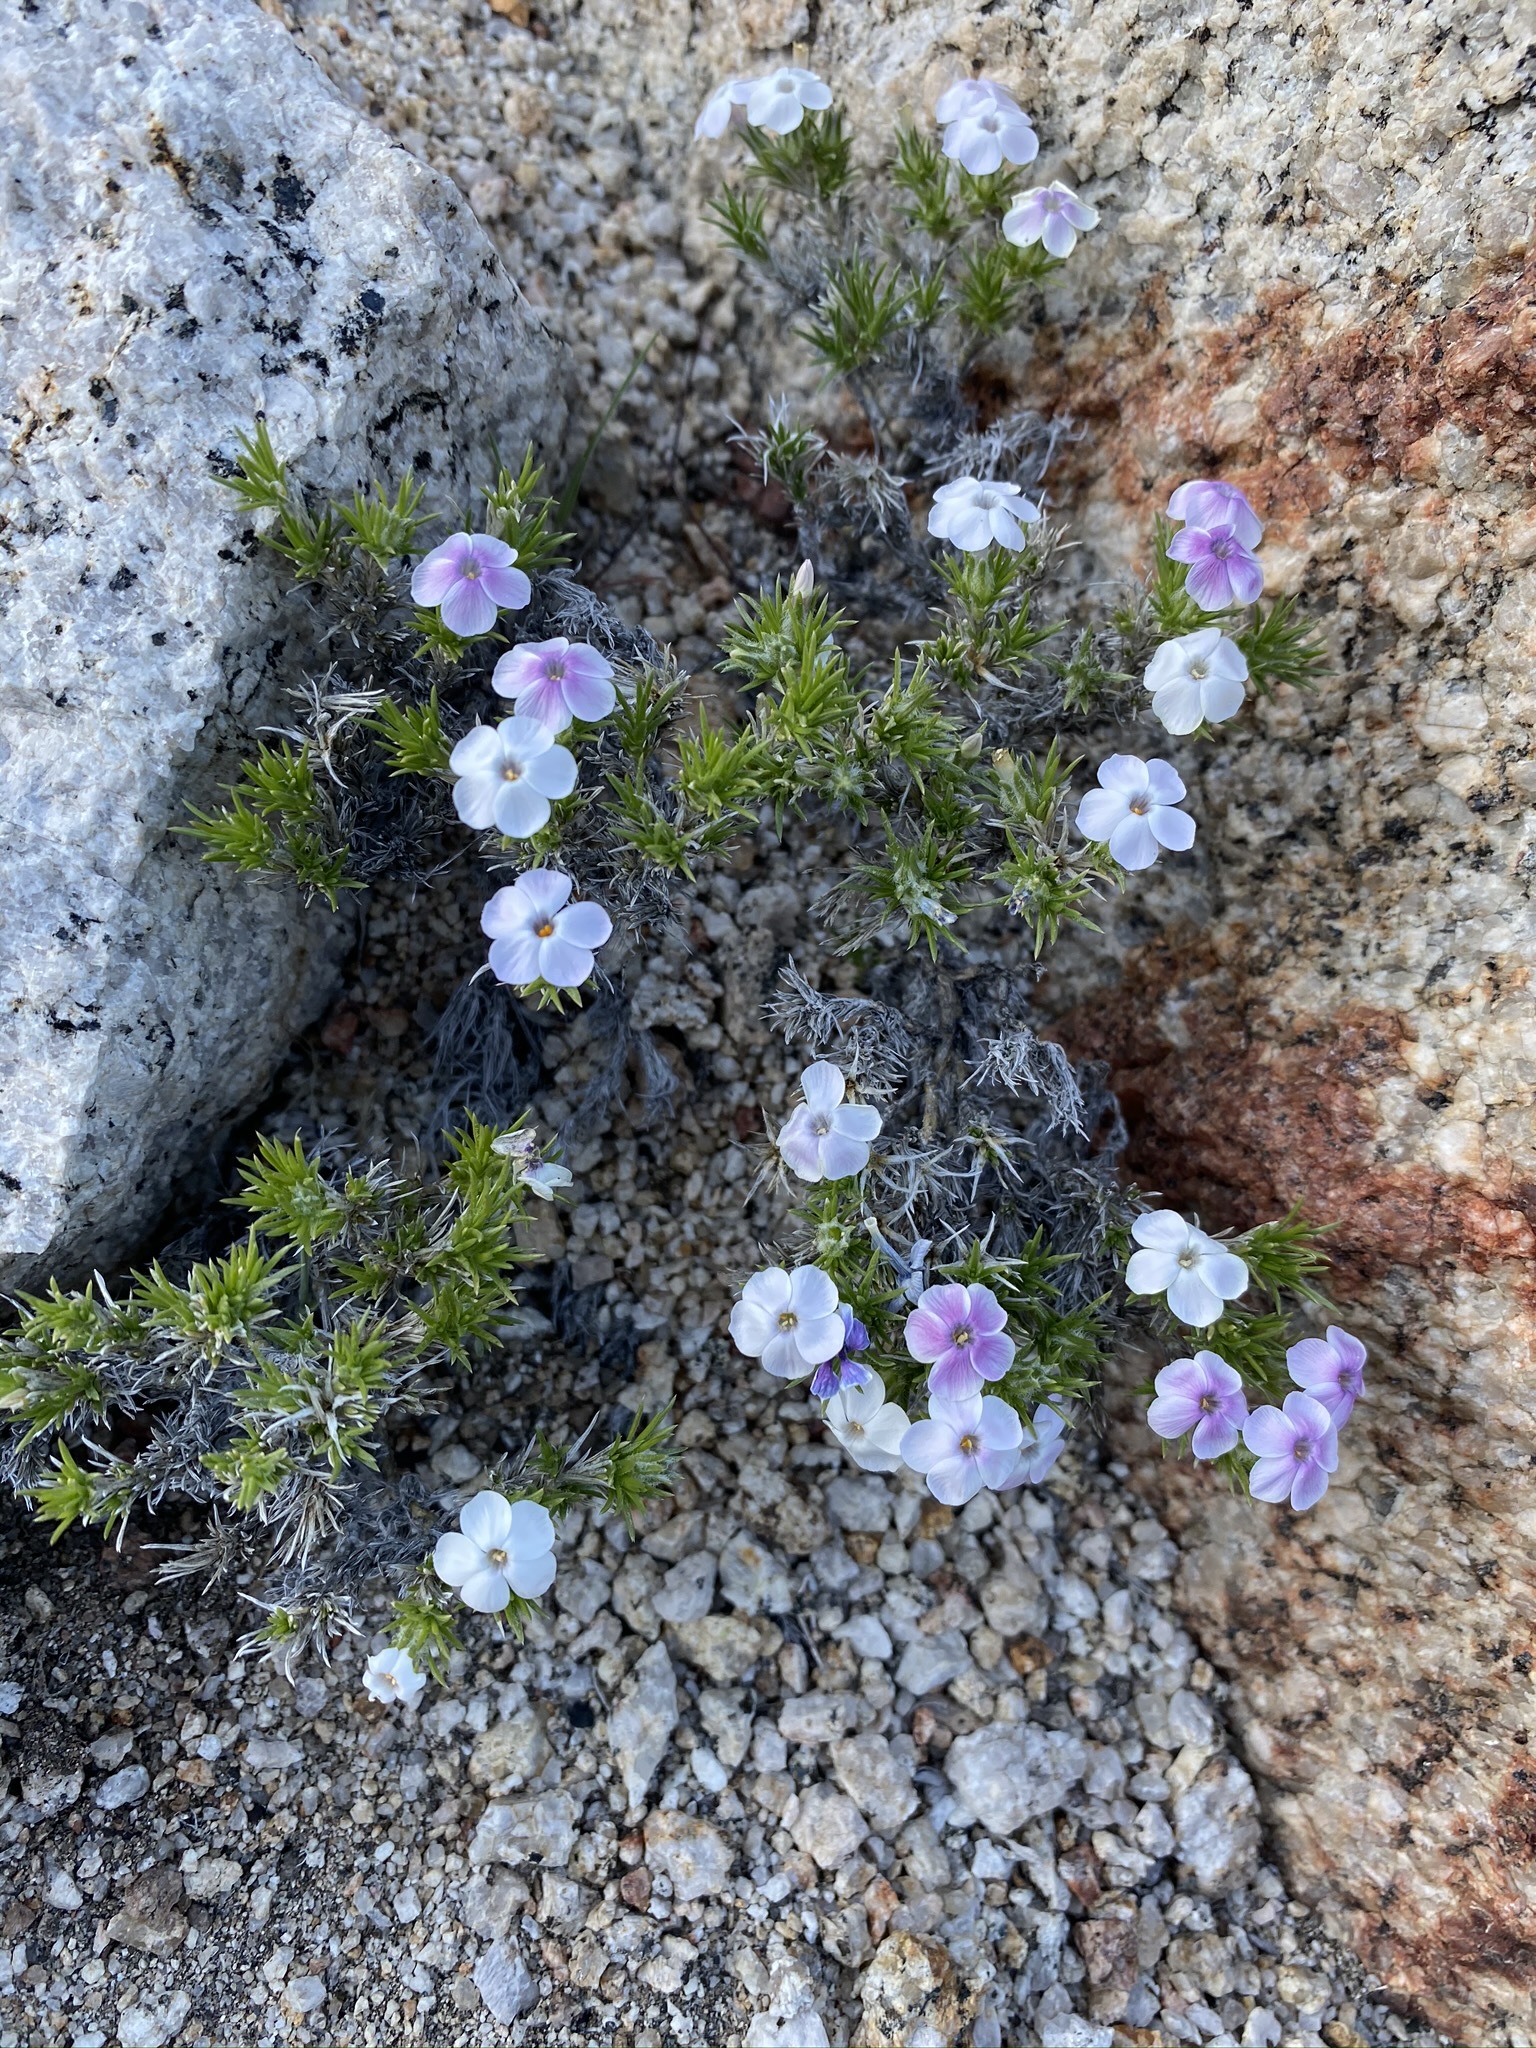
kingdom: Plantae
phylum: Tracheophyta
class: Magnoliopsida
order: Ericales
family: Polemoniaceae
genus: Phlox
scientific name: Phlox diffusa
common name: Mat phlox
